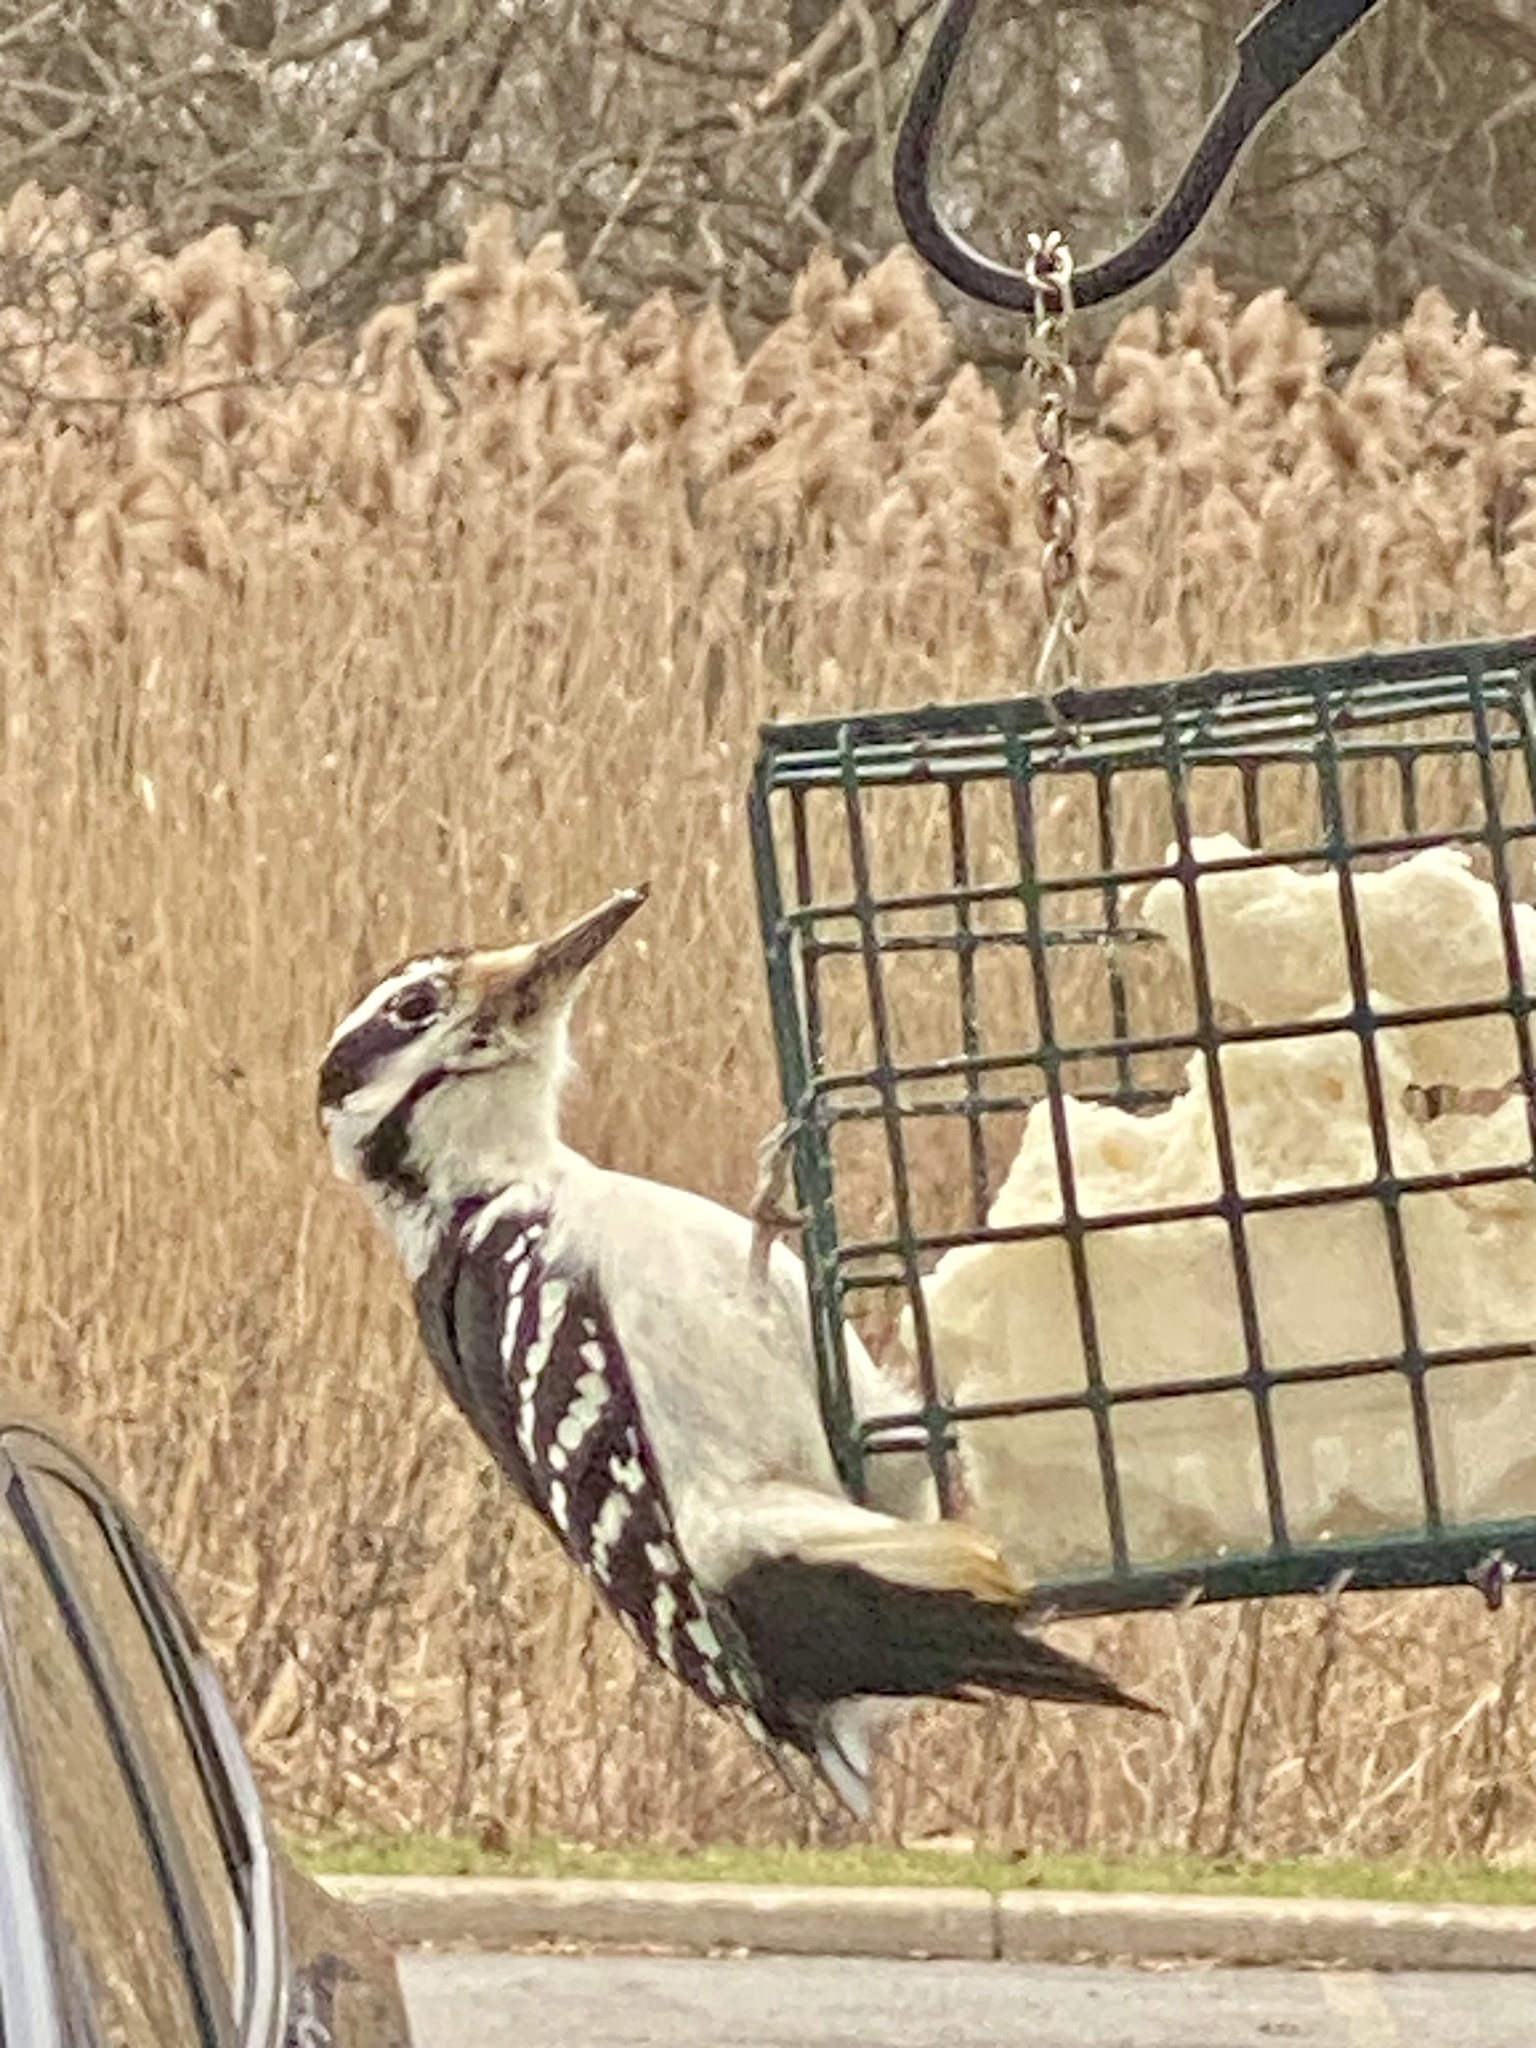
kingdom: Animalia
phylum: Chordata
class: Aves
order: Piciformes
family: Picidae
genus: Leuconotopicus
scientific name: Leuconotopicus villosus
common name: Hairy woodpecker
